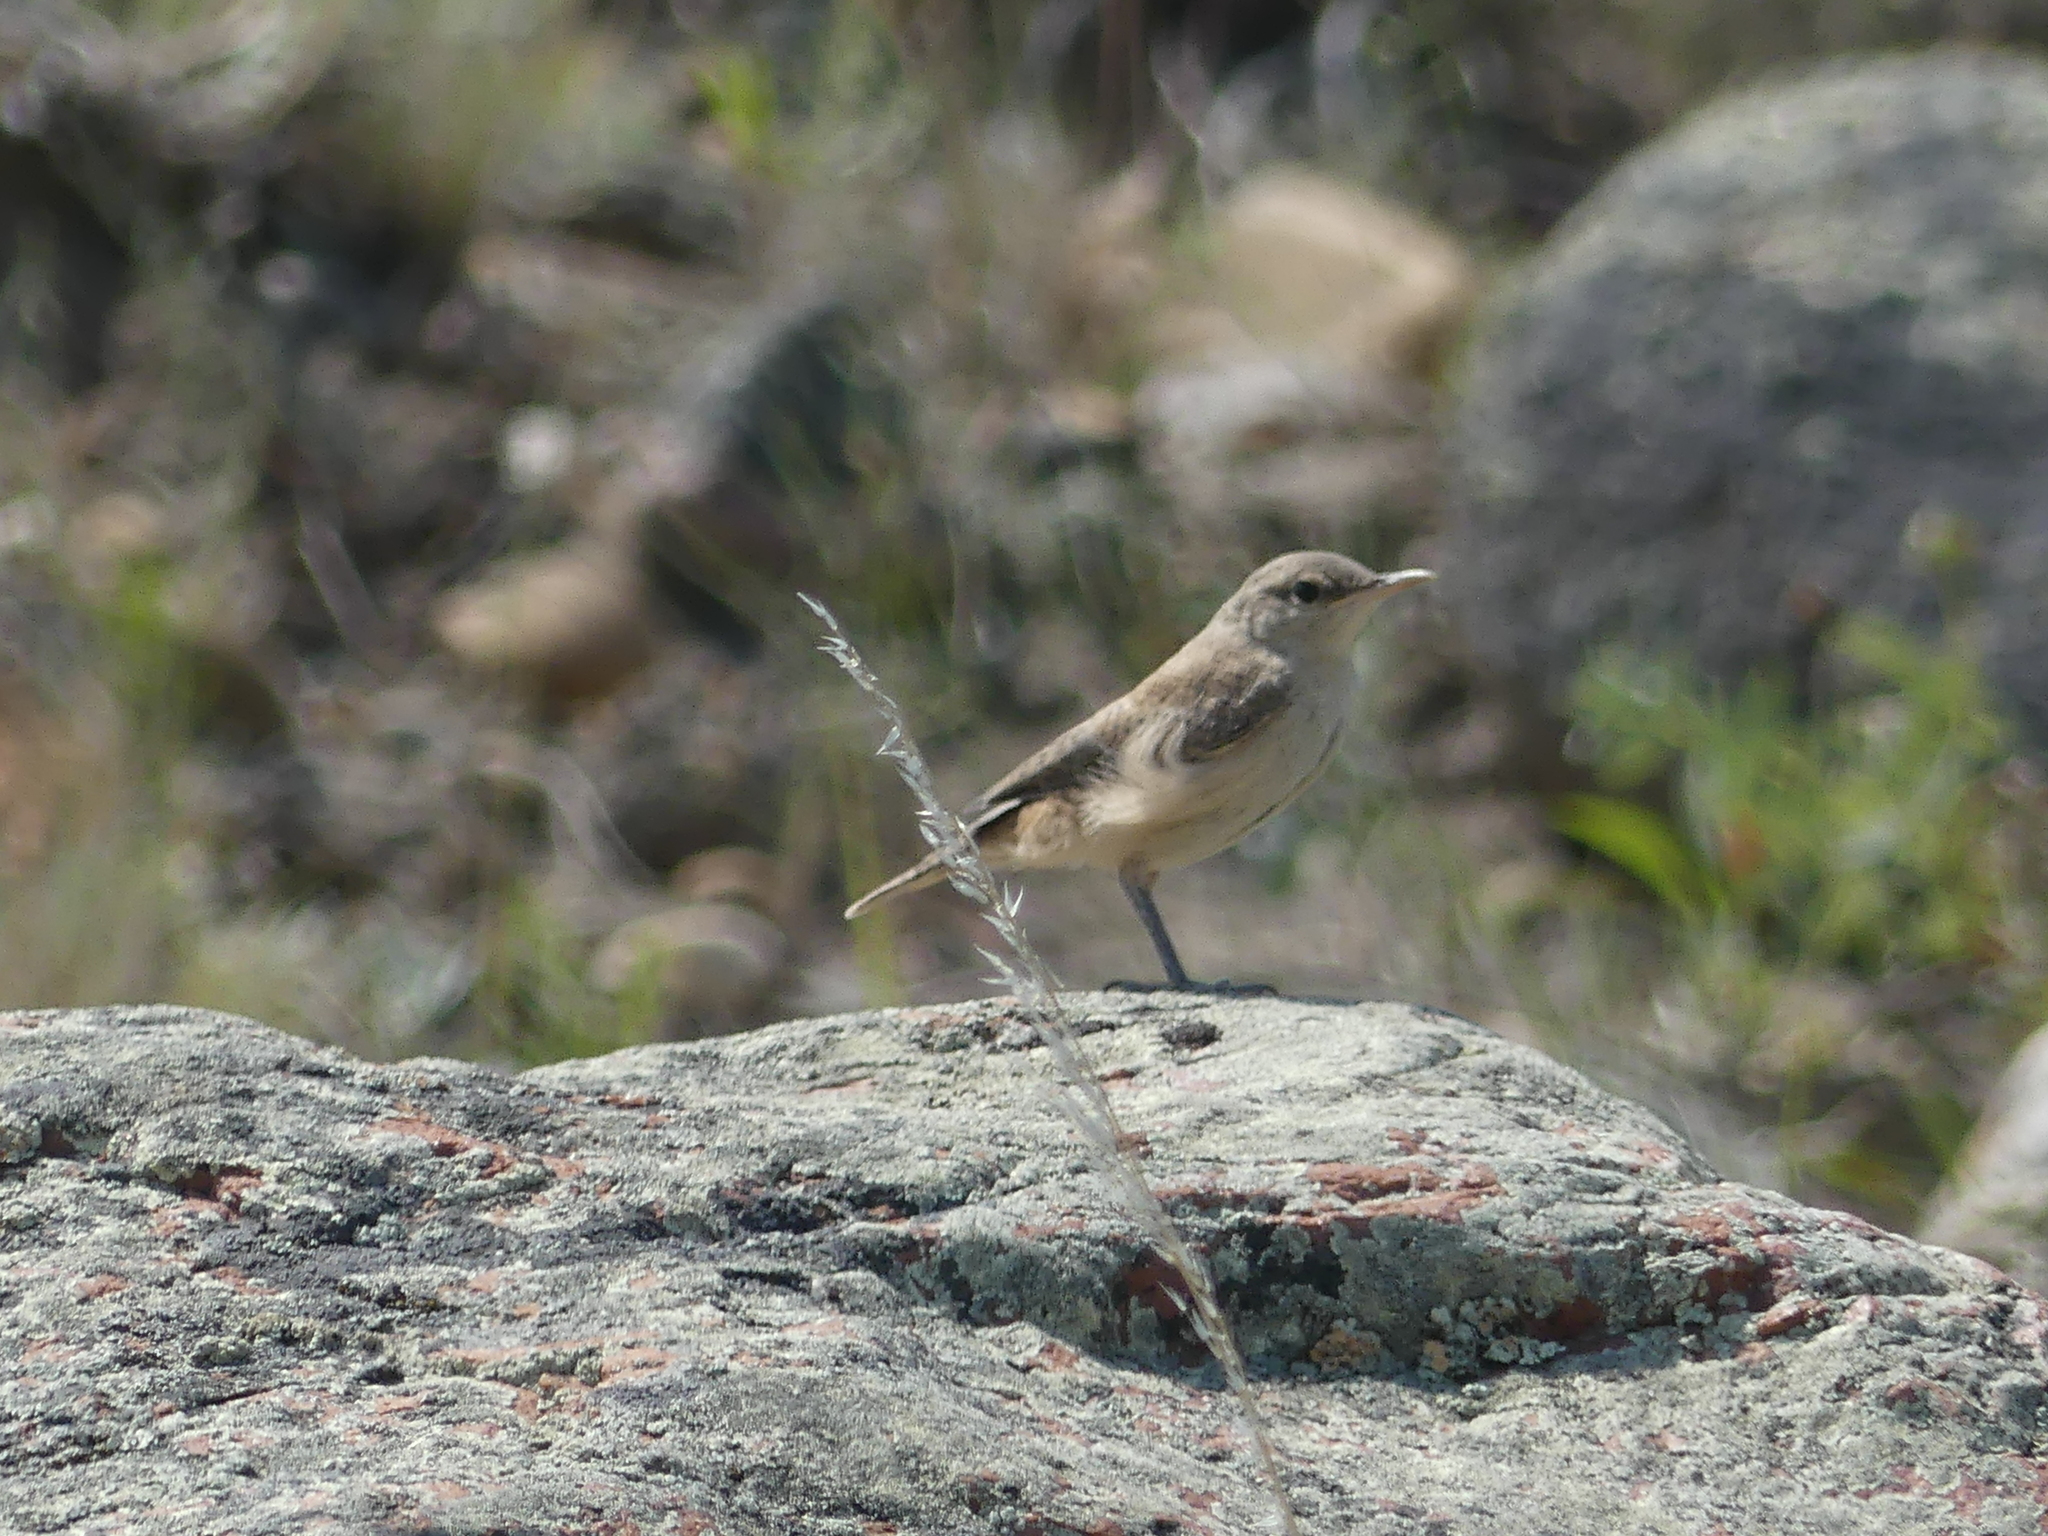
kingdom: Animalia
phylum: Chordata
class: Aves
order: Passeriformes
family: Troglodytidae
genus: Salpinctes
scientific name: Salpinctes obsoletus
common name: Rock wren
